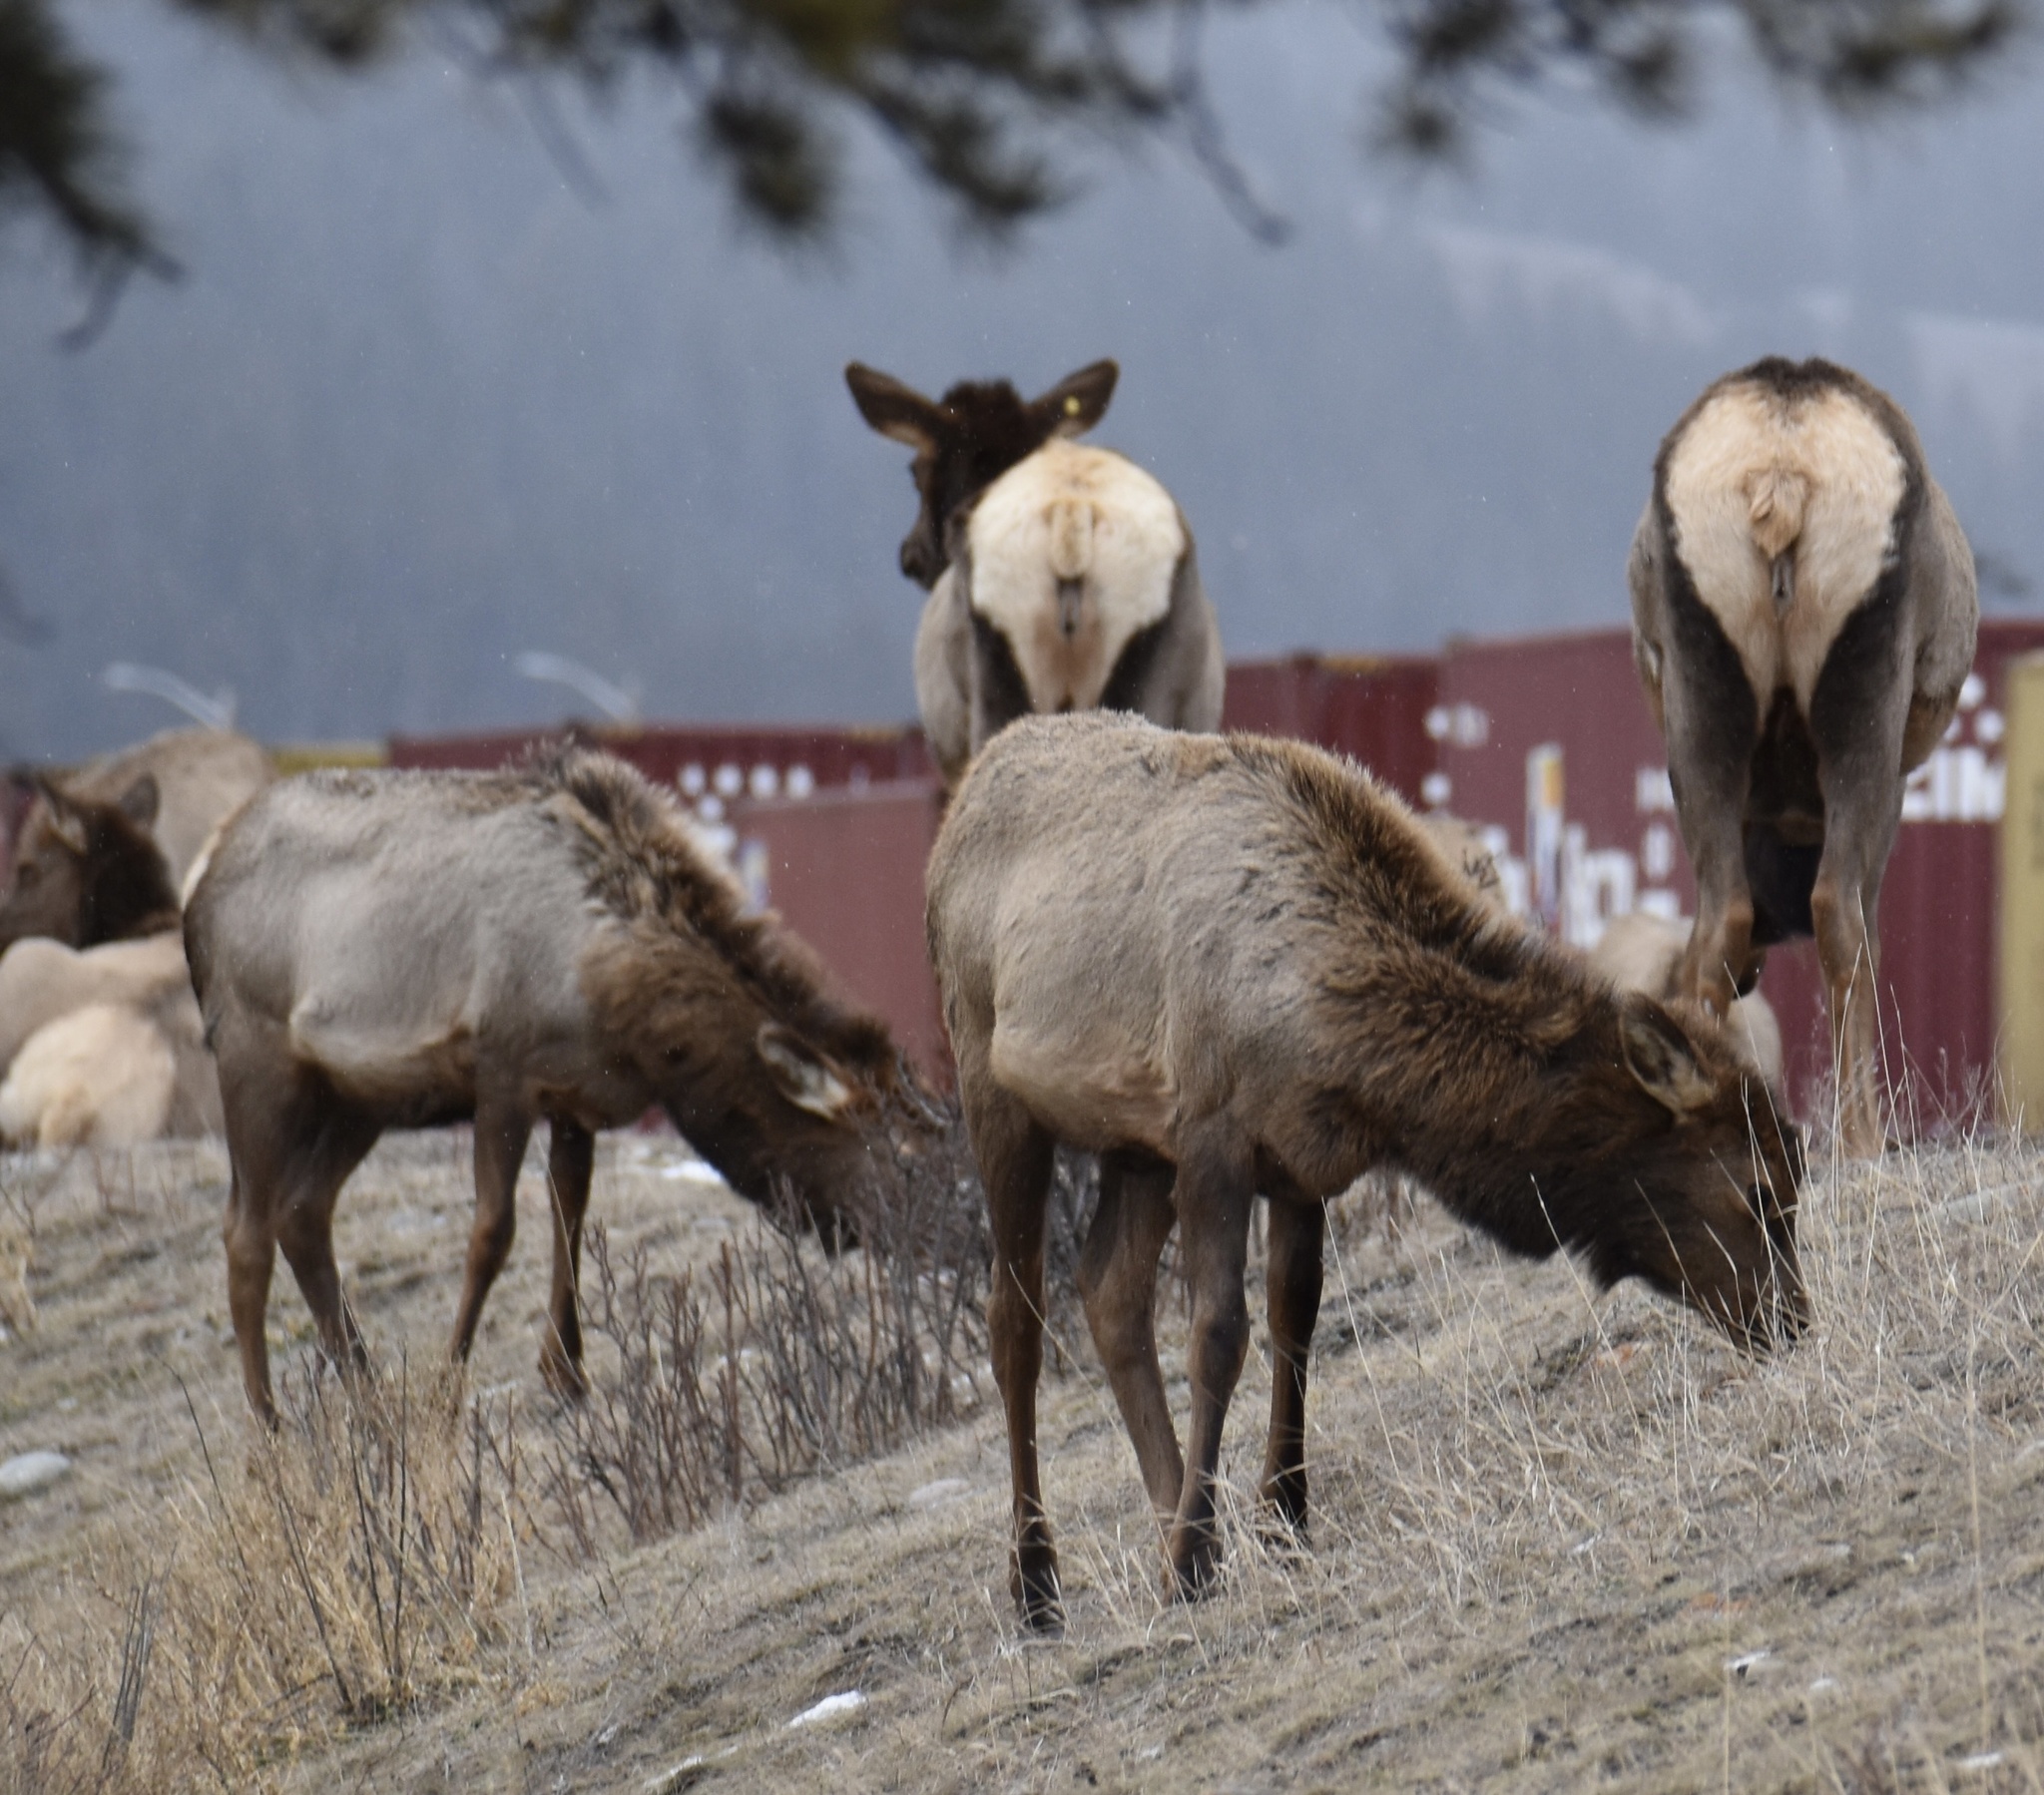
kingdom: Animalia
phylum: Chordata
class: Mammalia
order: Artiodactyla
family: Cervidae
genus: Cervus
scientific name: Cervus elaphus
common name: Red deer
